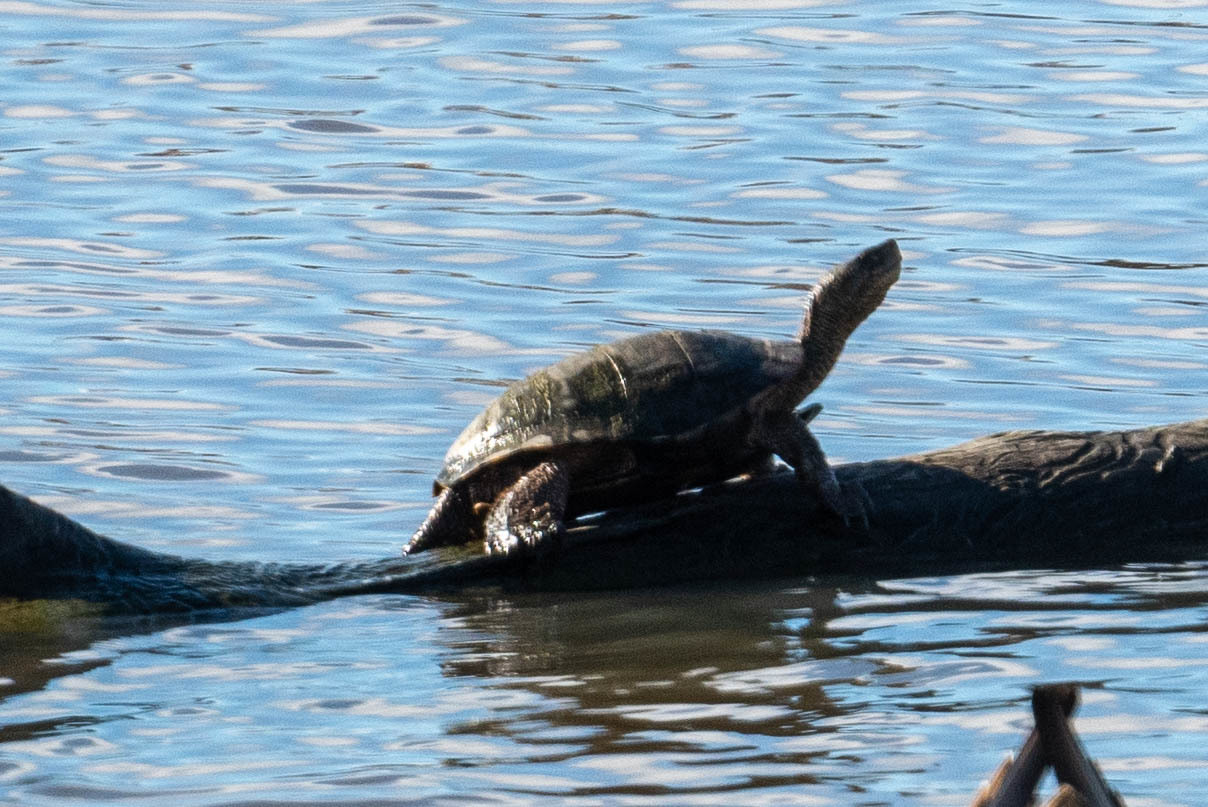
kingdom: Animalia
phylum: Chordata
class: Testudines
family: Emydidae
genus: Actinemys
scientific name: Actinemys marmorata
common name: Western pond turtle
